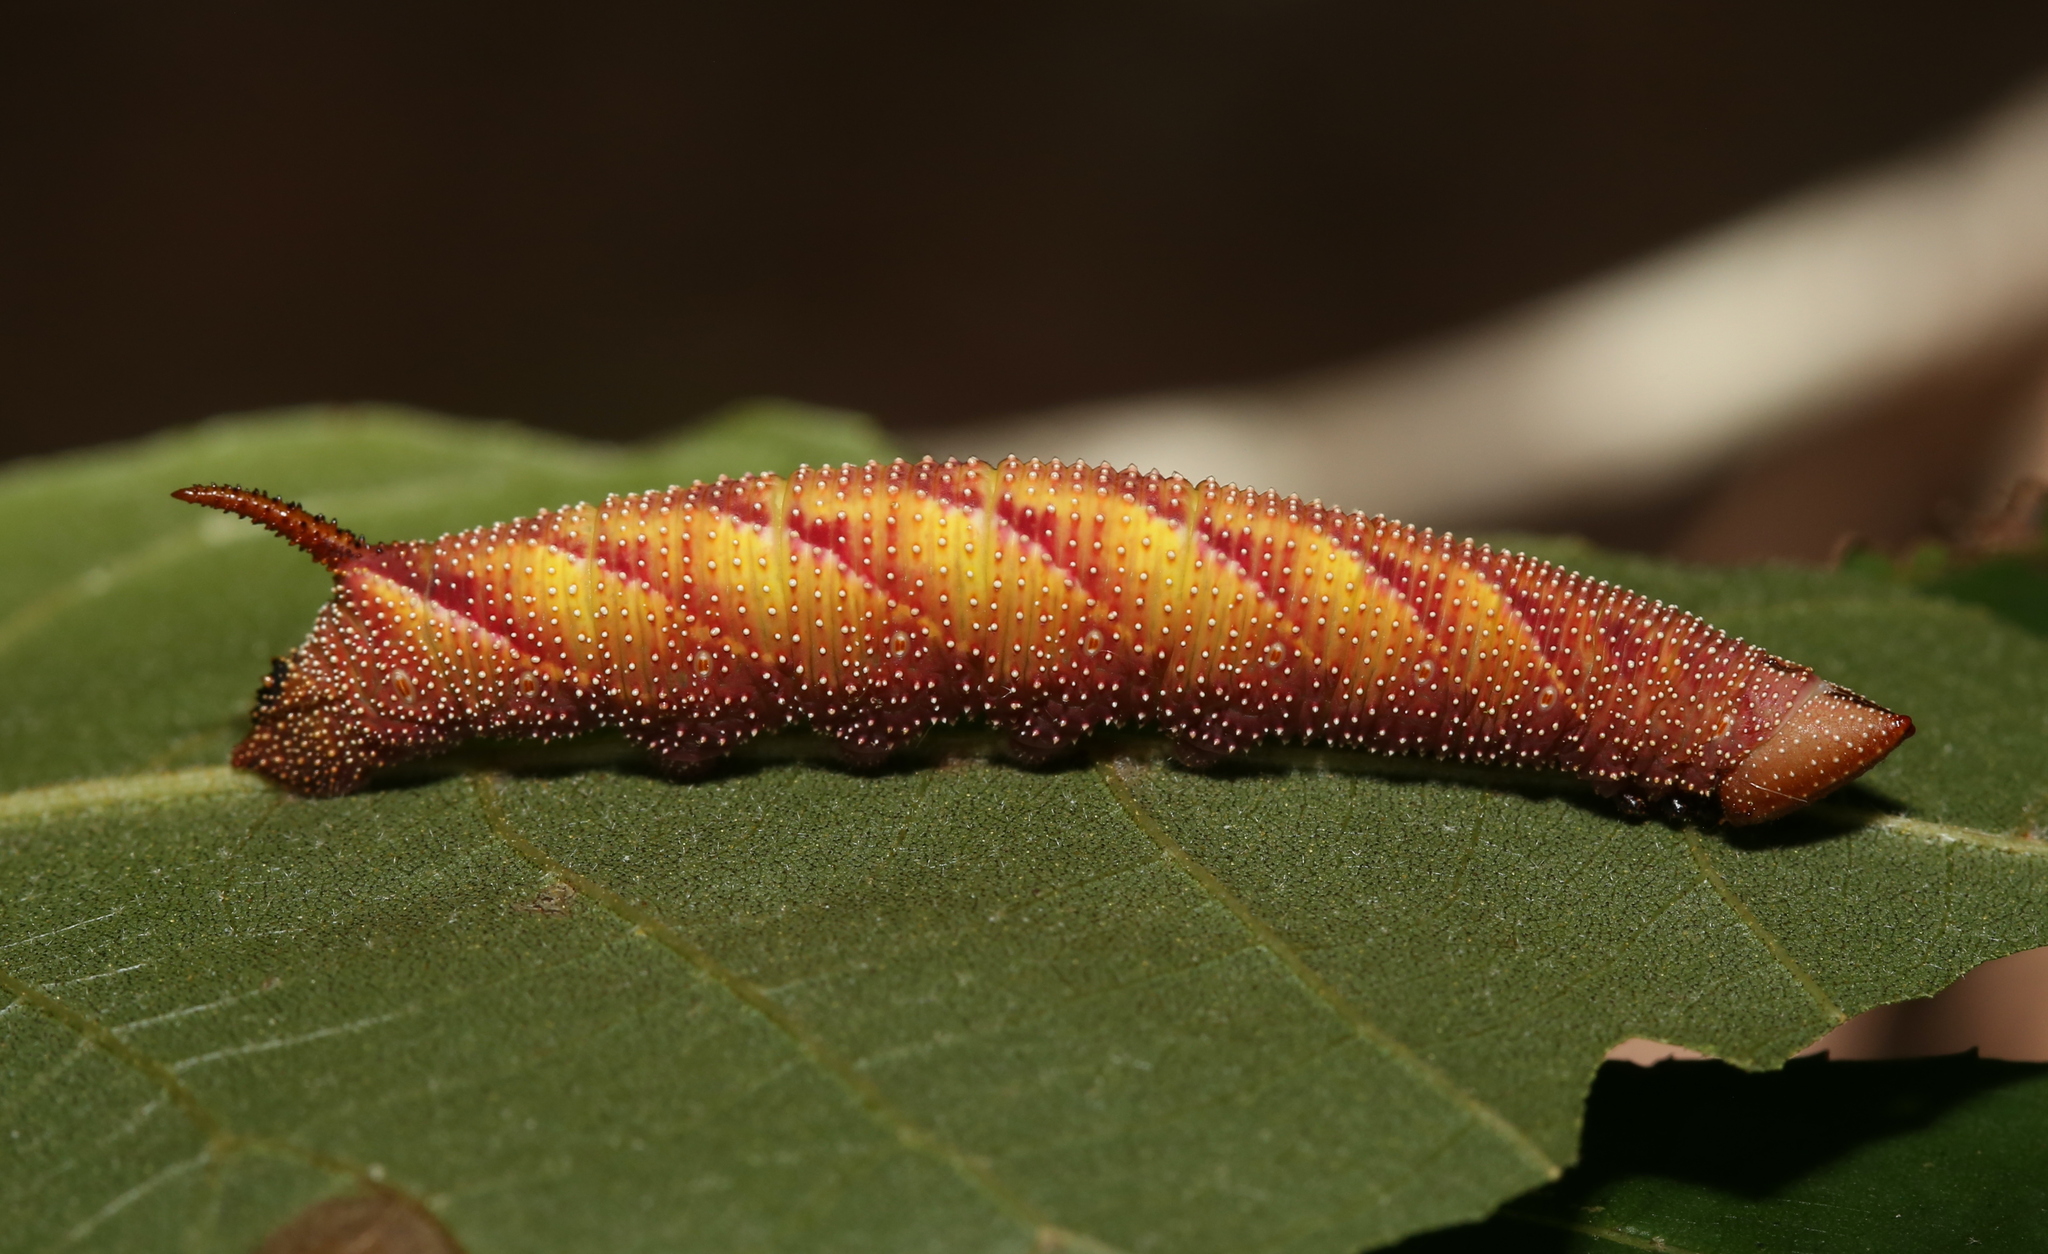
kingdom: Animalia
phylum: Arthropoda
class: Insecta
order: Lepidoptera
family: Sphingidae
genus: Amorpha
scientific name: Amorpha juglandis
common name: Walnut sphinx
